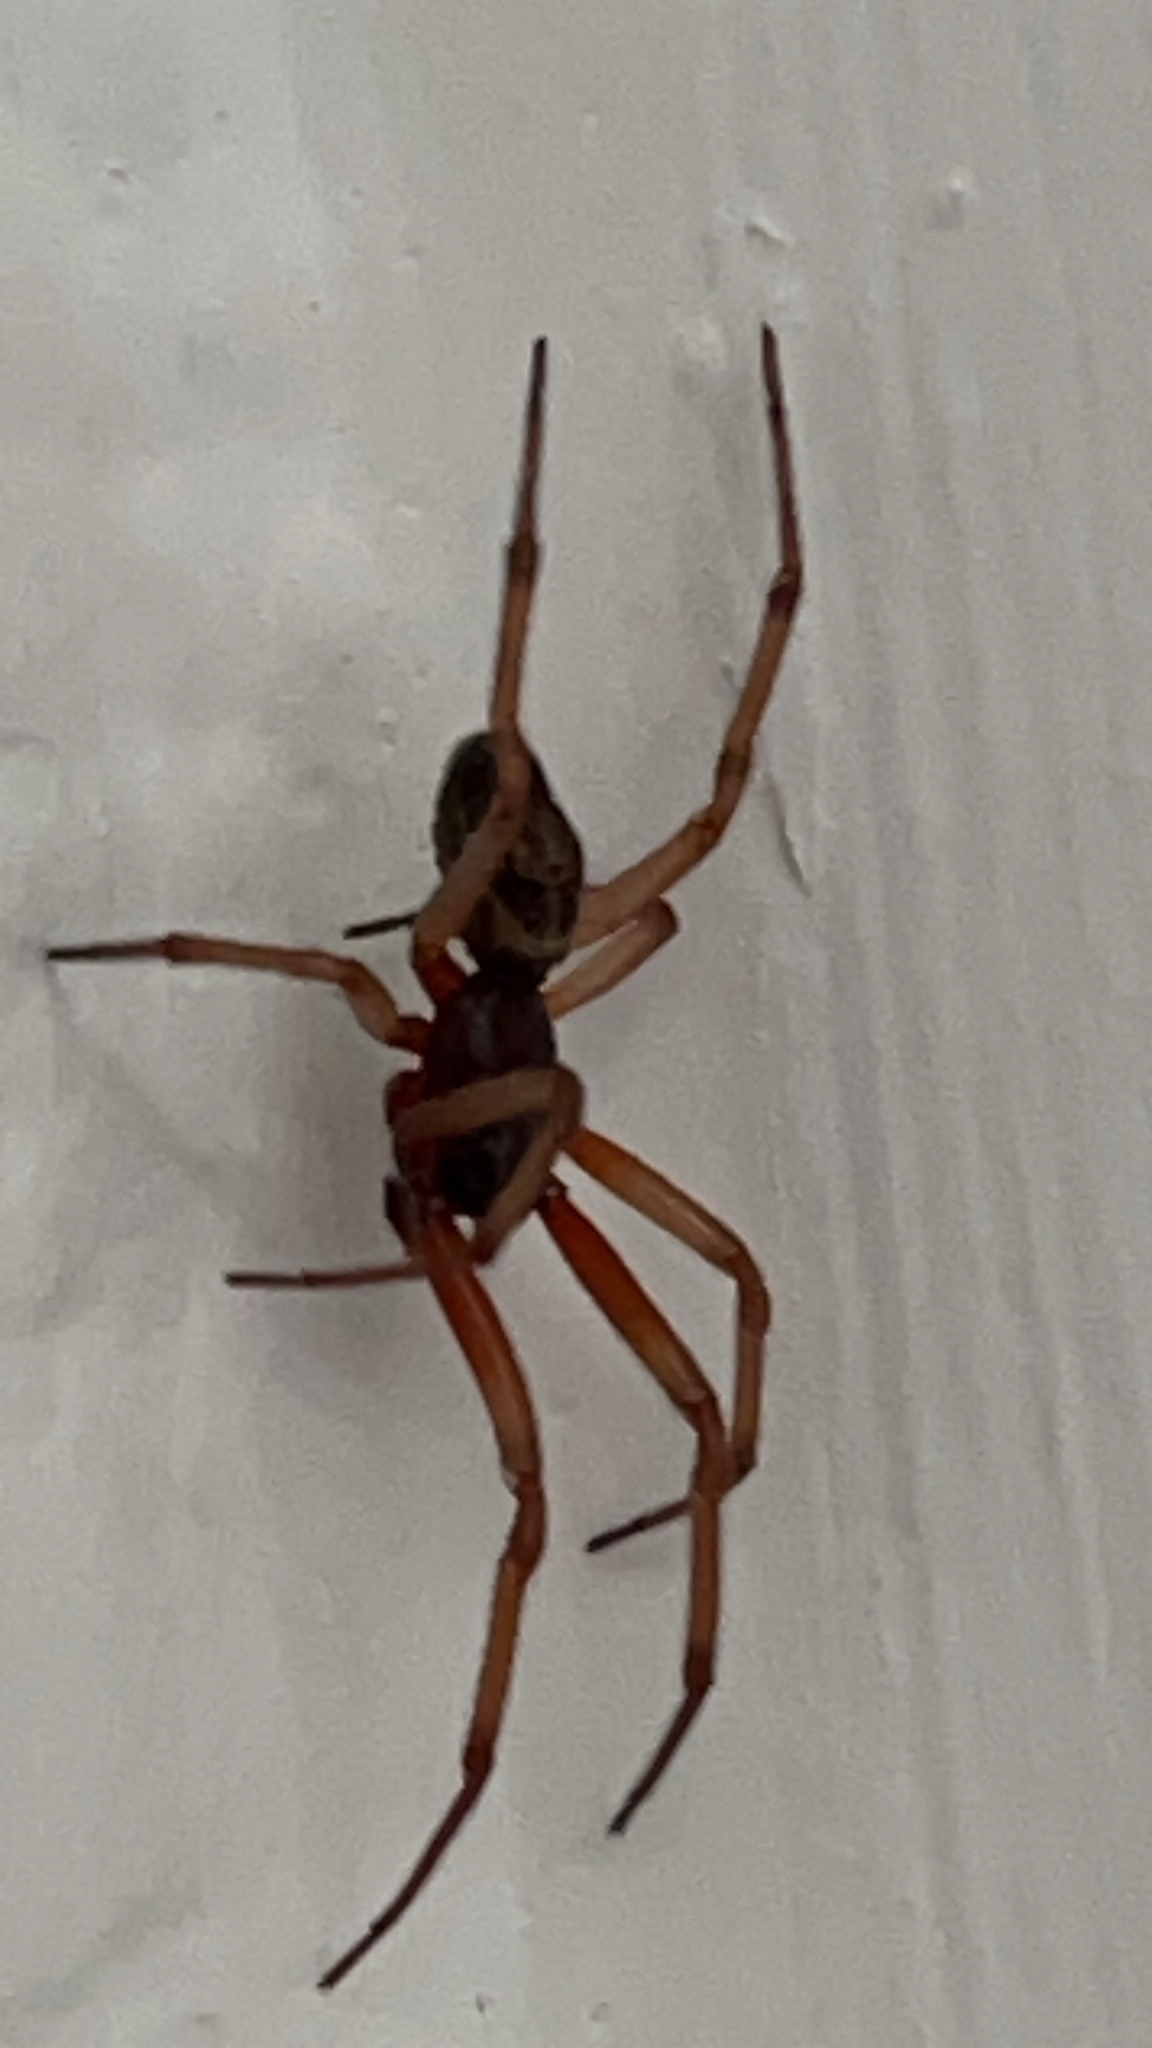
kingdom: Animalia
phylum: Arthropoda
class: Arachnida
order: Araneae
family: Theridiidae
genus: Steatoda
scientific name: Steatoda nobilis
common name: Cobweb weaver
